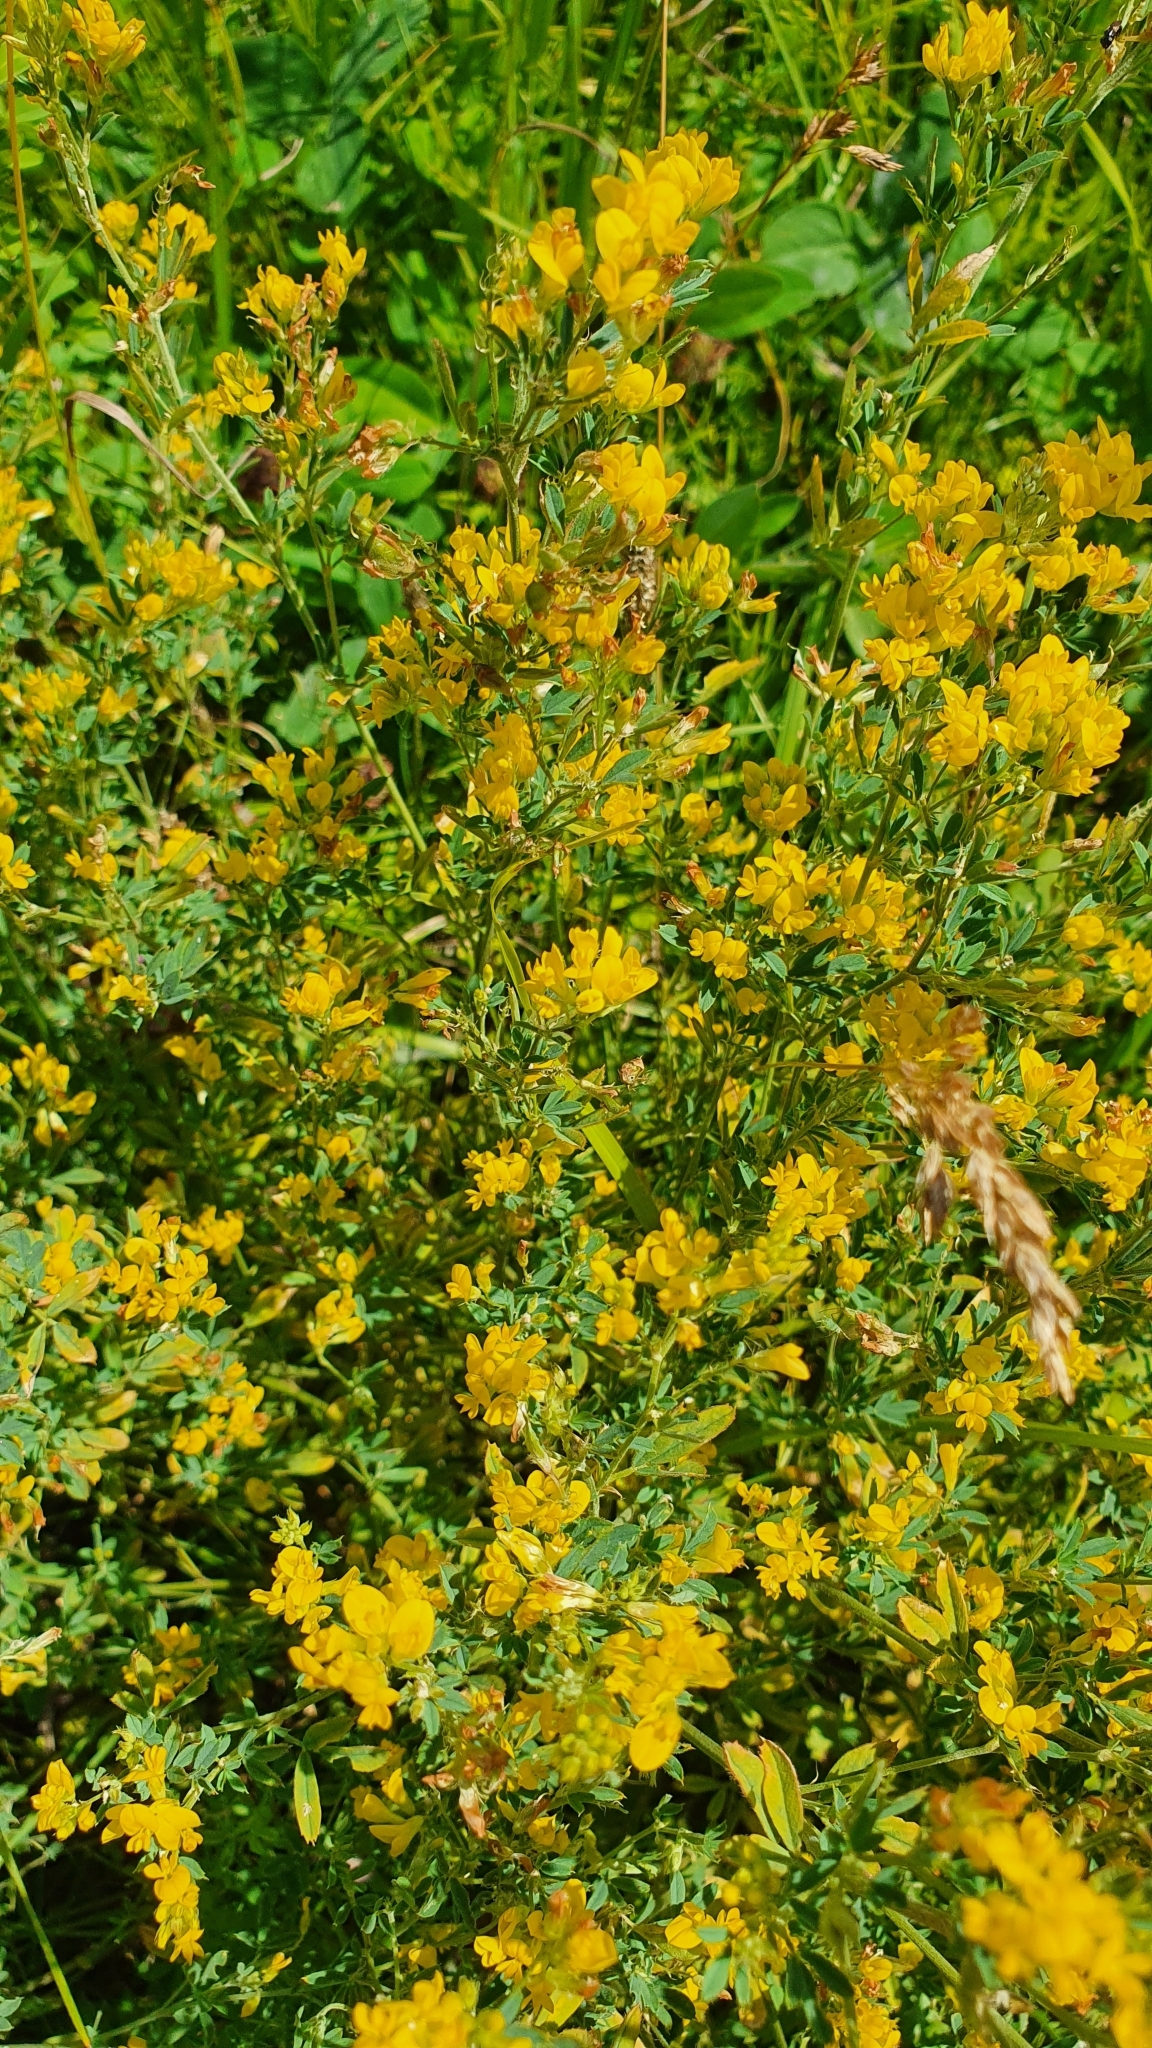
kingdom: Plantae
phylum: Tracheophyta
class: Magnoliopsida
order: Fabales
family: Fabaceae
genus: Medicago
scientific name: Medicago falcata
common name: Sickle medick
